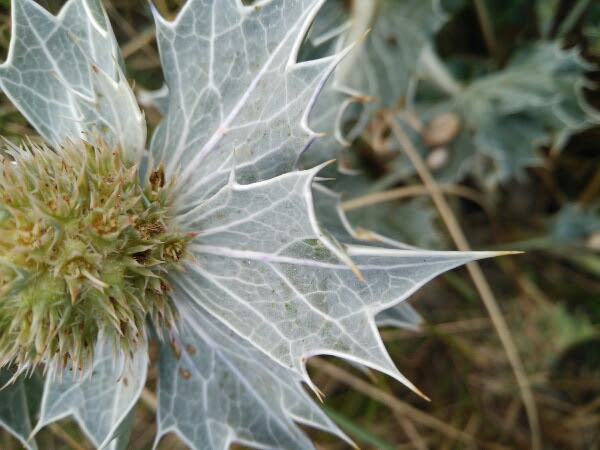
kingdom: Plantae
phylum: Tracheophyta
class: Magnoliopsida
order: Apiales
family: Apiaceae
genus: Eryngium
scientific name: Eryngium maritimum
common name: Sea-holly
